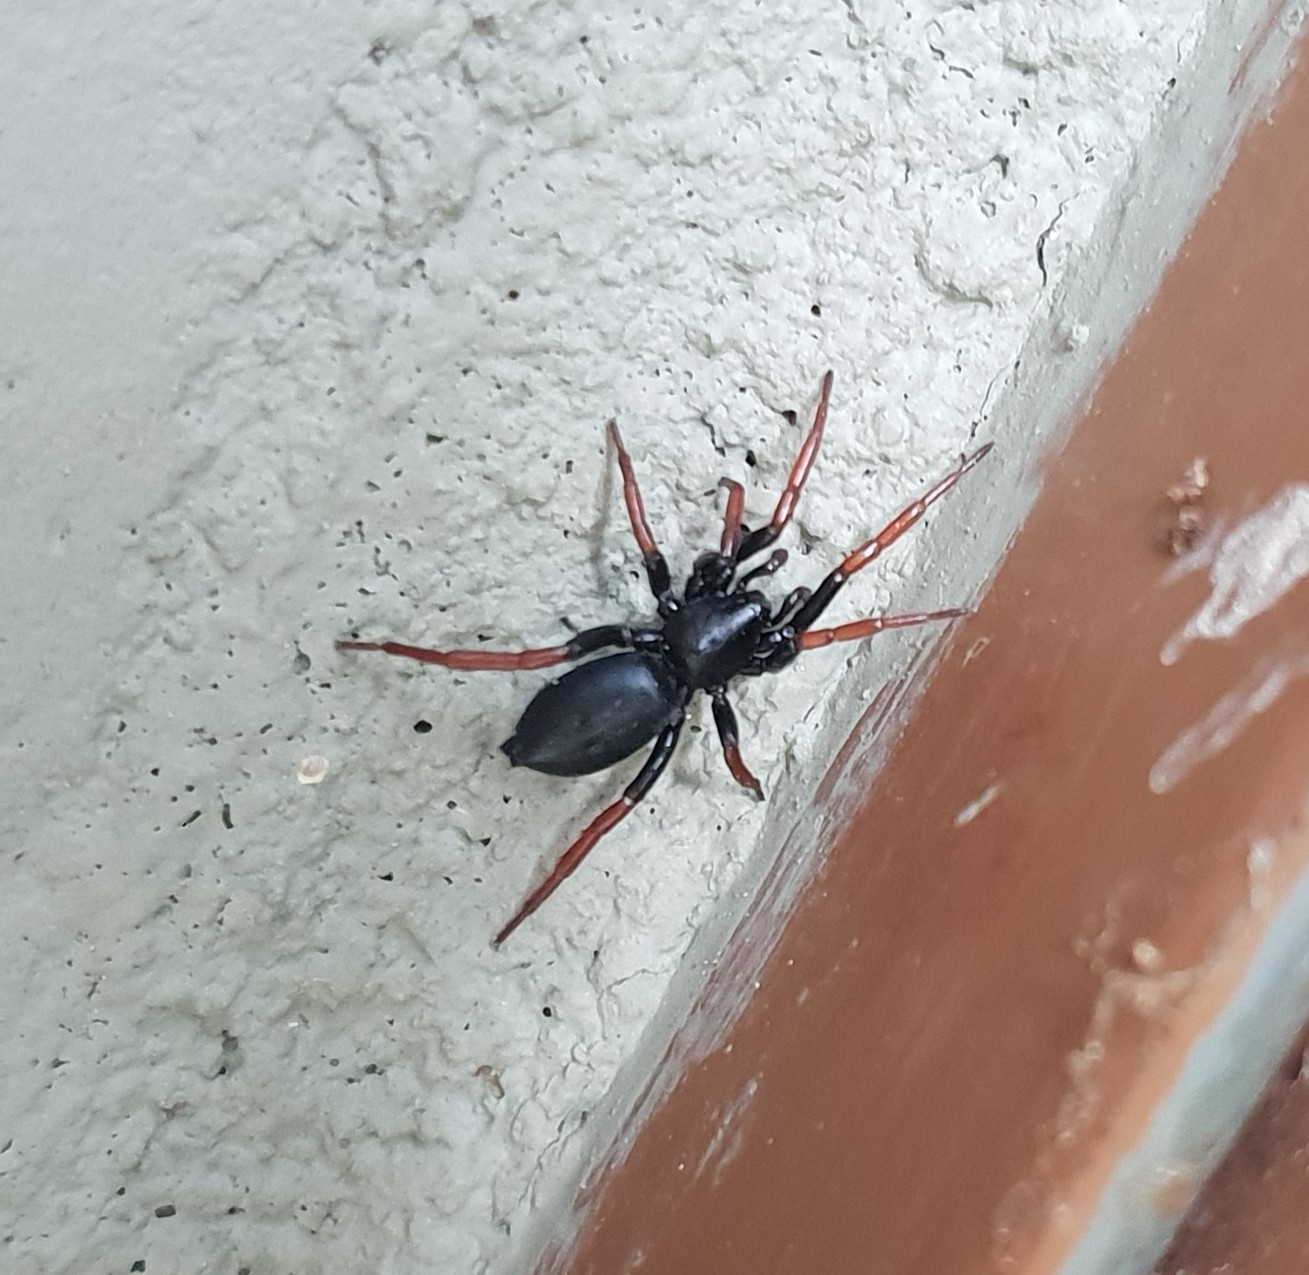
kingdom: Animalia
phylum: Arthropoda
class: Arachnida
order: Araneae
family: Gnaphosidae
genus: Trachyzelotes
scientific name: Trachyzelotes pedestris
